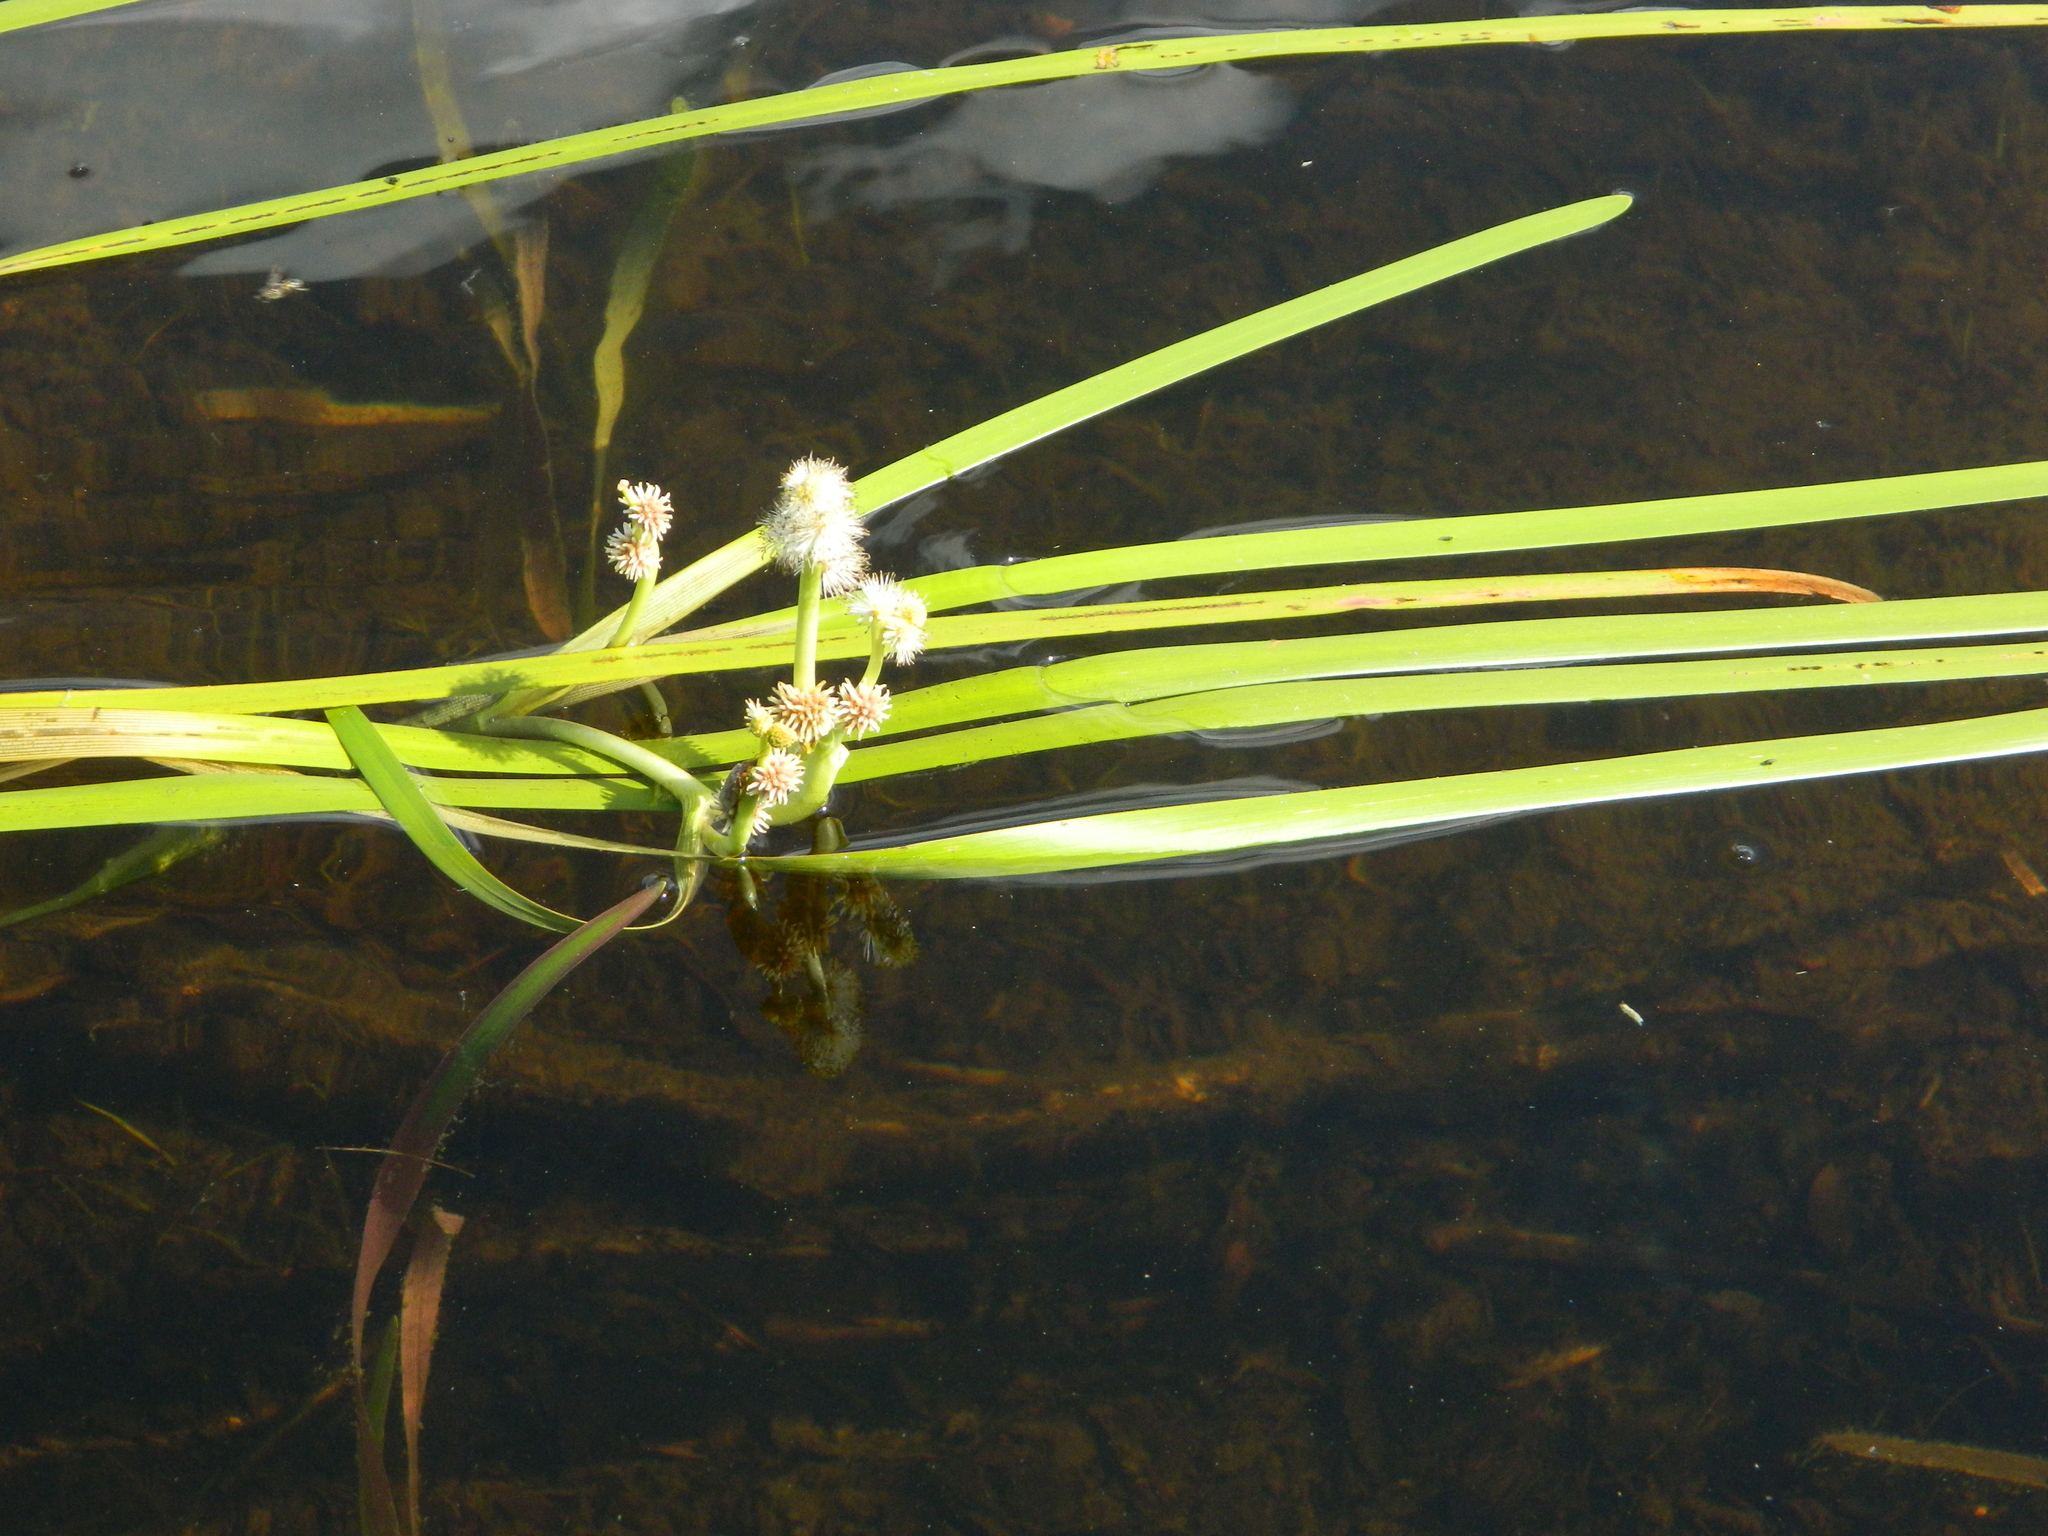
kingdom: Plantae
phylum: Tracheophyta
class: Liliopsida
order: Poales
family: Typhaceae
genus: Sparganium
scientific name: Sparganium fluctuans
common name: Floating burreed
